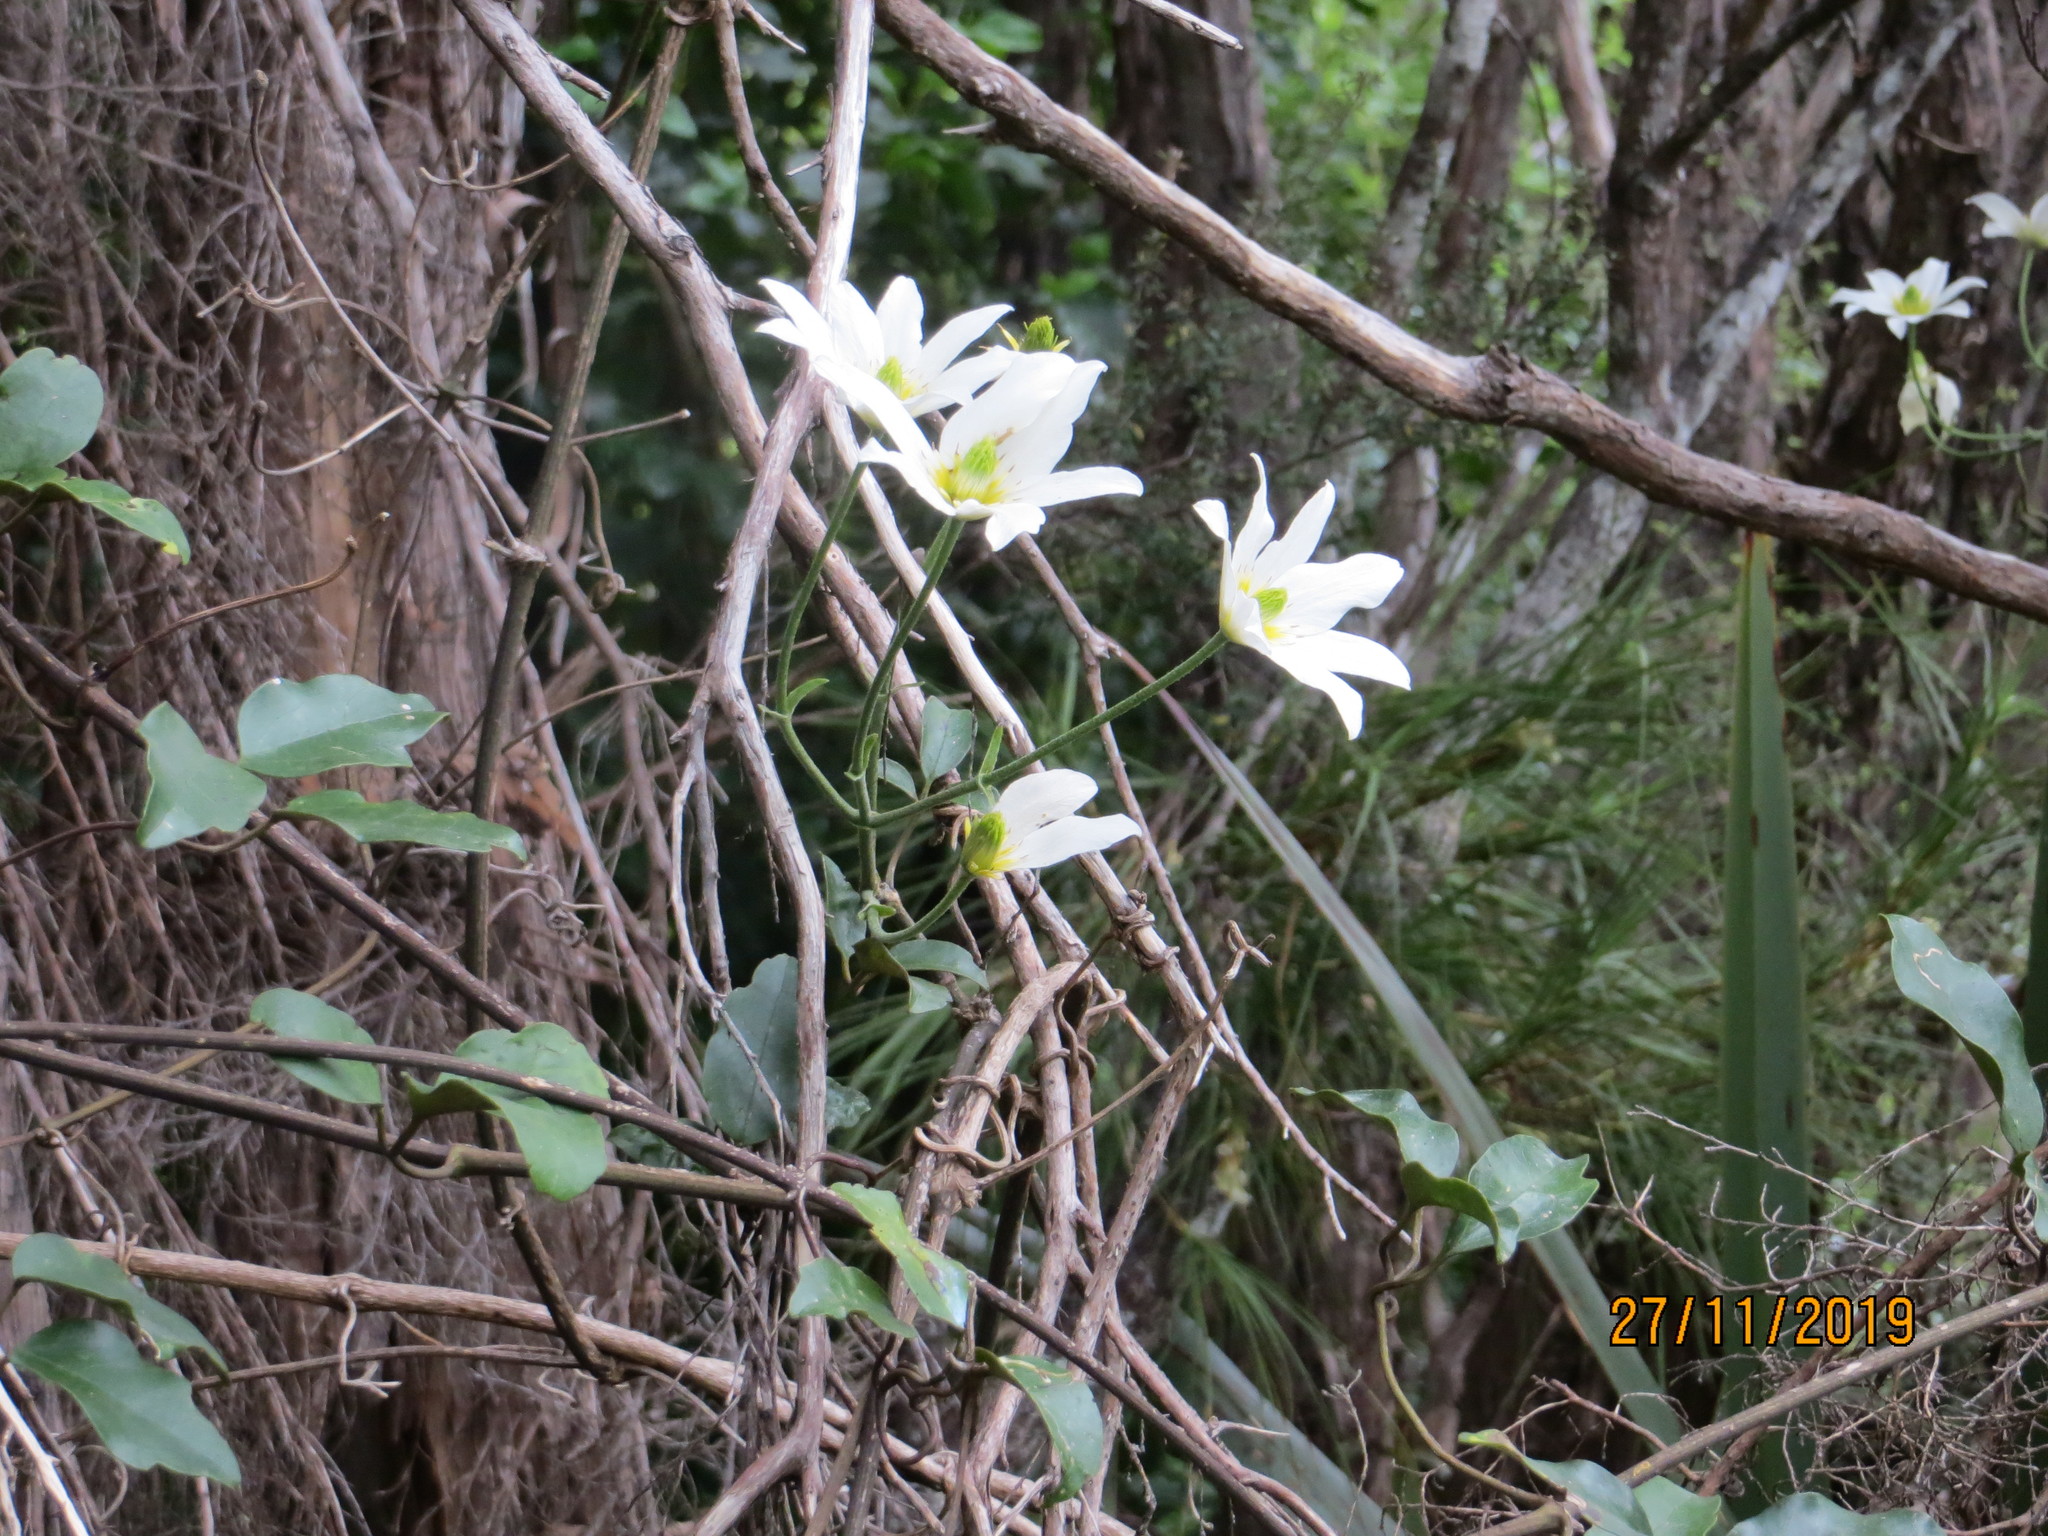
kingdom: Plantae
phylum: Tracheophyta
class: Magnoliopsida
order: Ranunculales
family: Ranunculaceae
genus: Clematis
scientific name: Clematis paniculata
